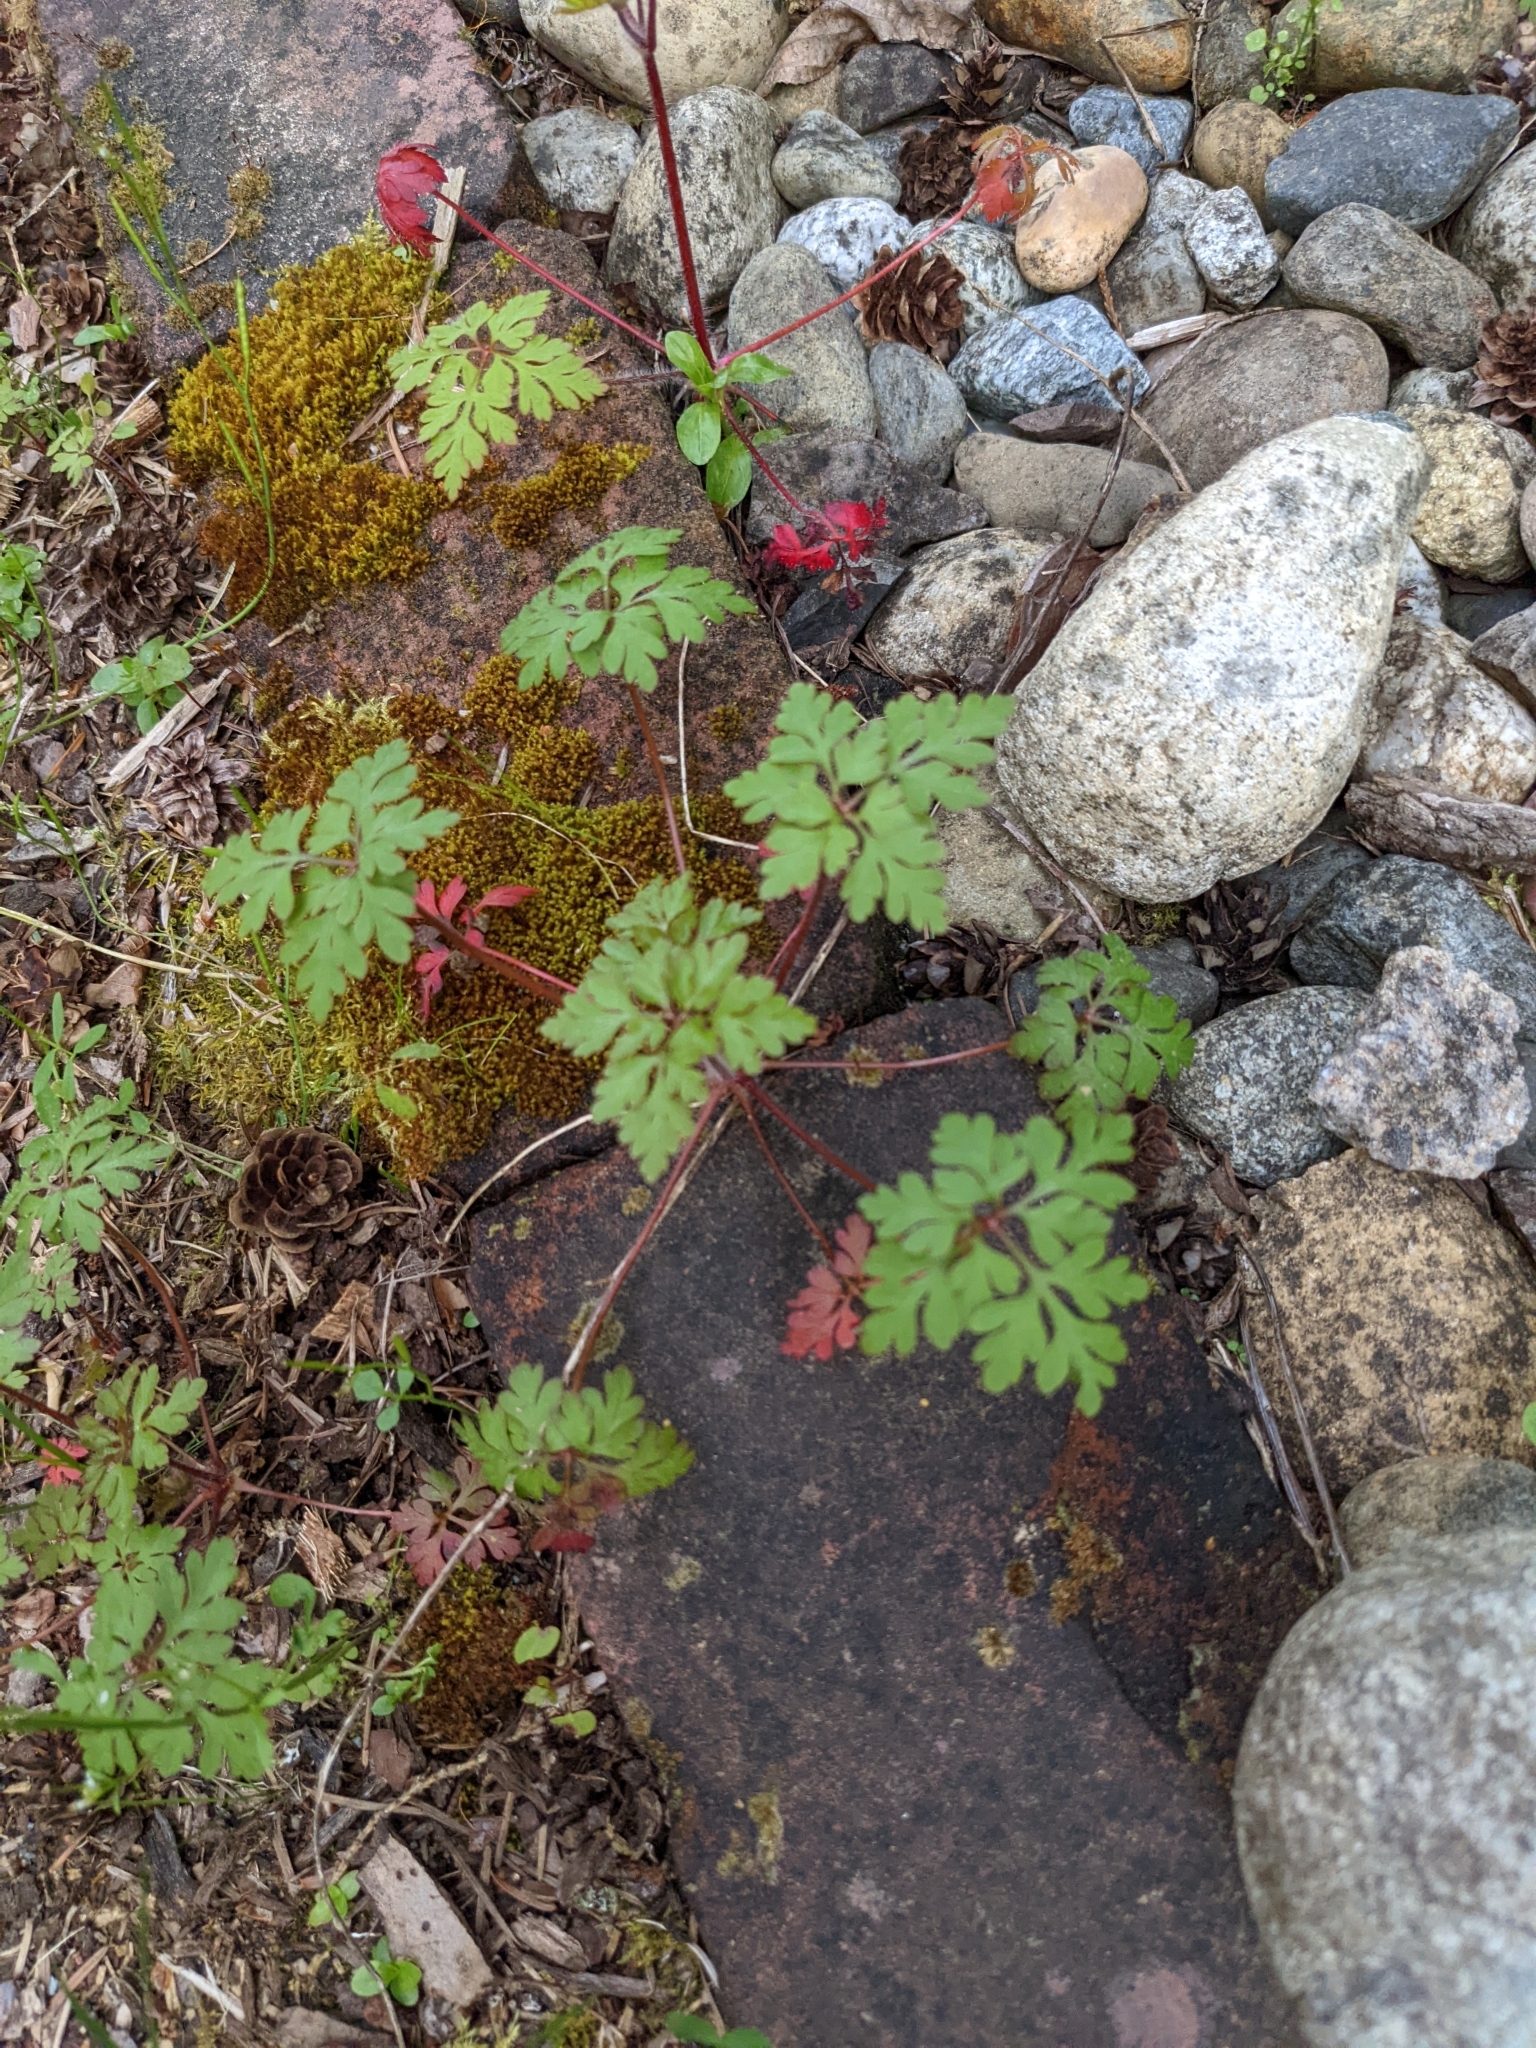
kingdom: Plantae
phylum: Tracheophyta
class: Magnoliopsida
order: Geraniales
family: Geraniaceae
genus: Geranium
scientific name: Geranium robertianum
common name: Herb-robert
